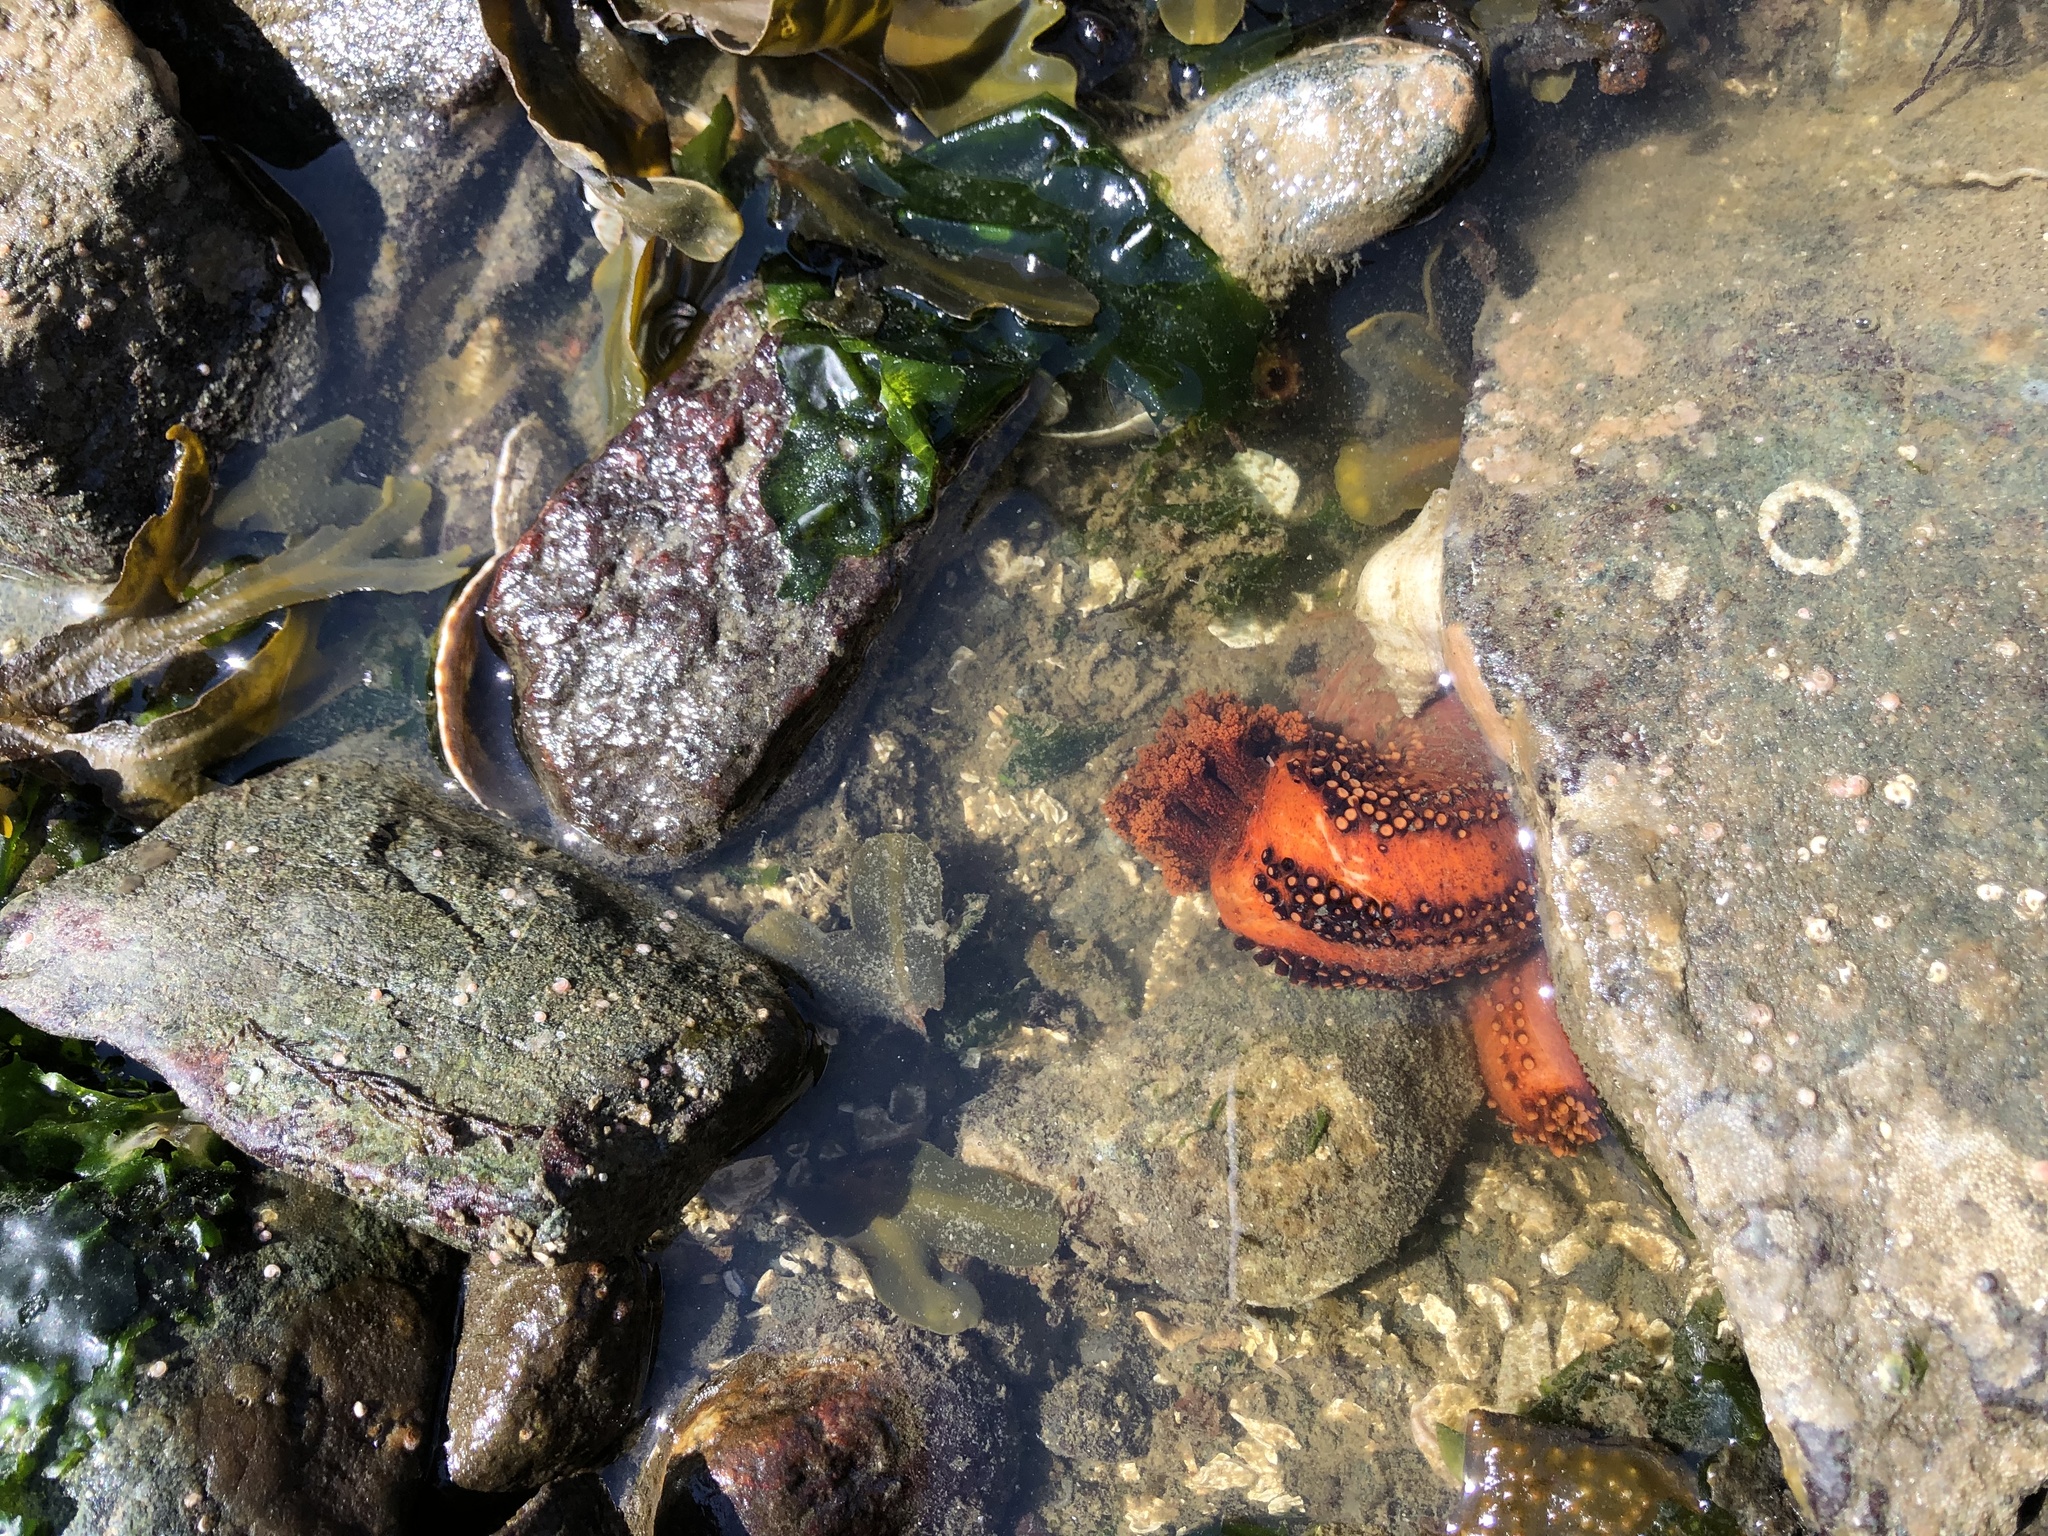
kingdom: Animalia
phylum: Echinodermata
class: Holothuroidea
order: Dendrochirotida
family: Cucumariidae
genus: Cucumaria
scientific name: Cucumaria miniata
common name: Orange sea cucumber
